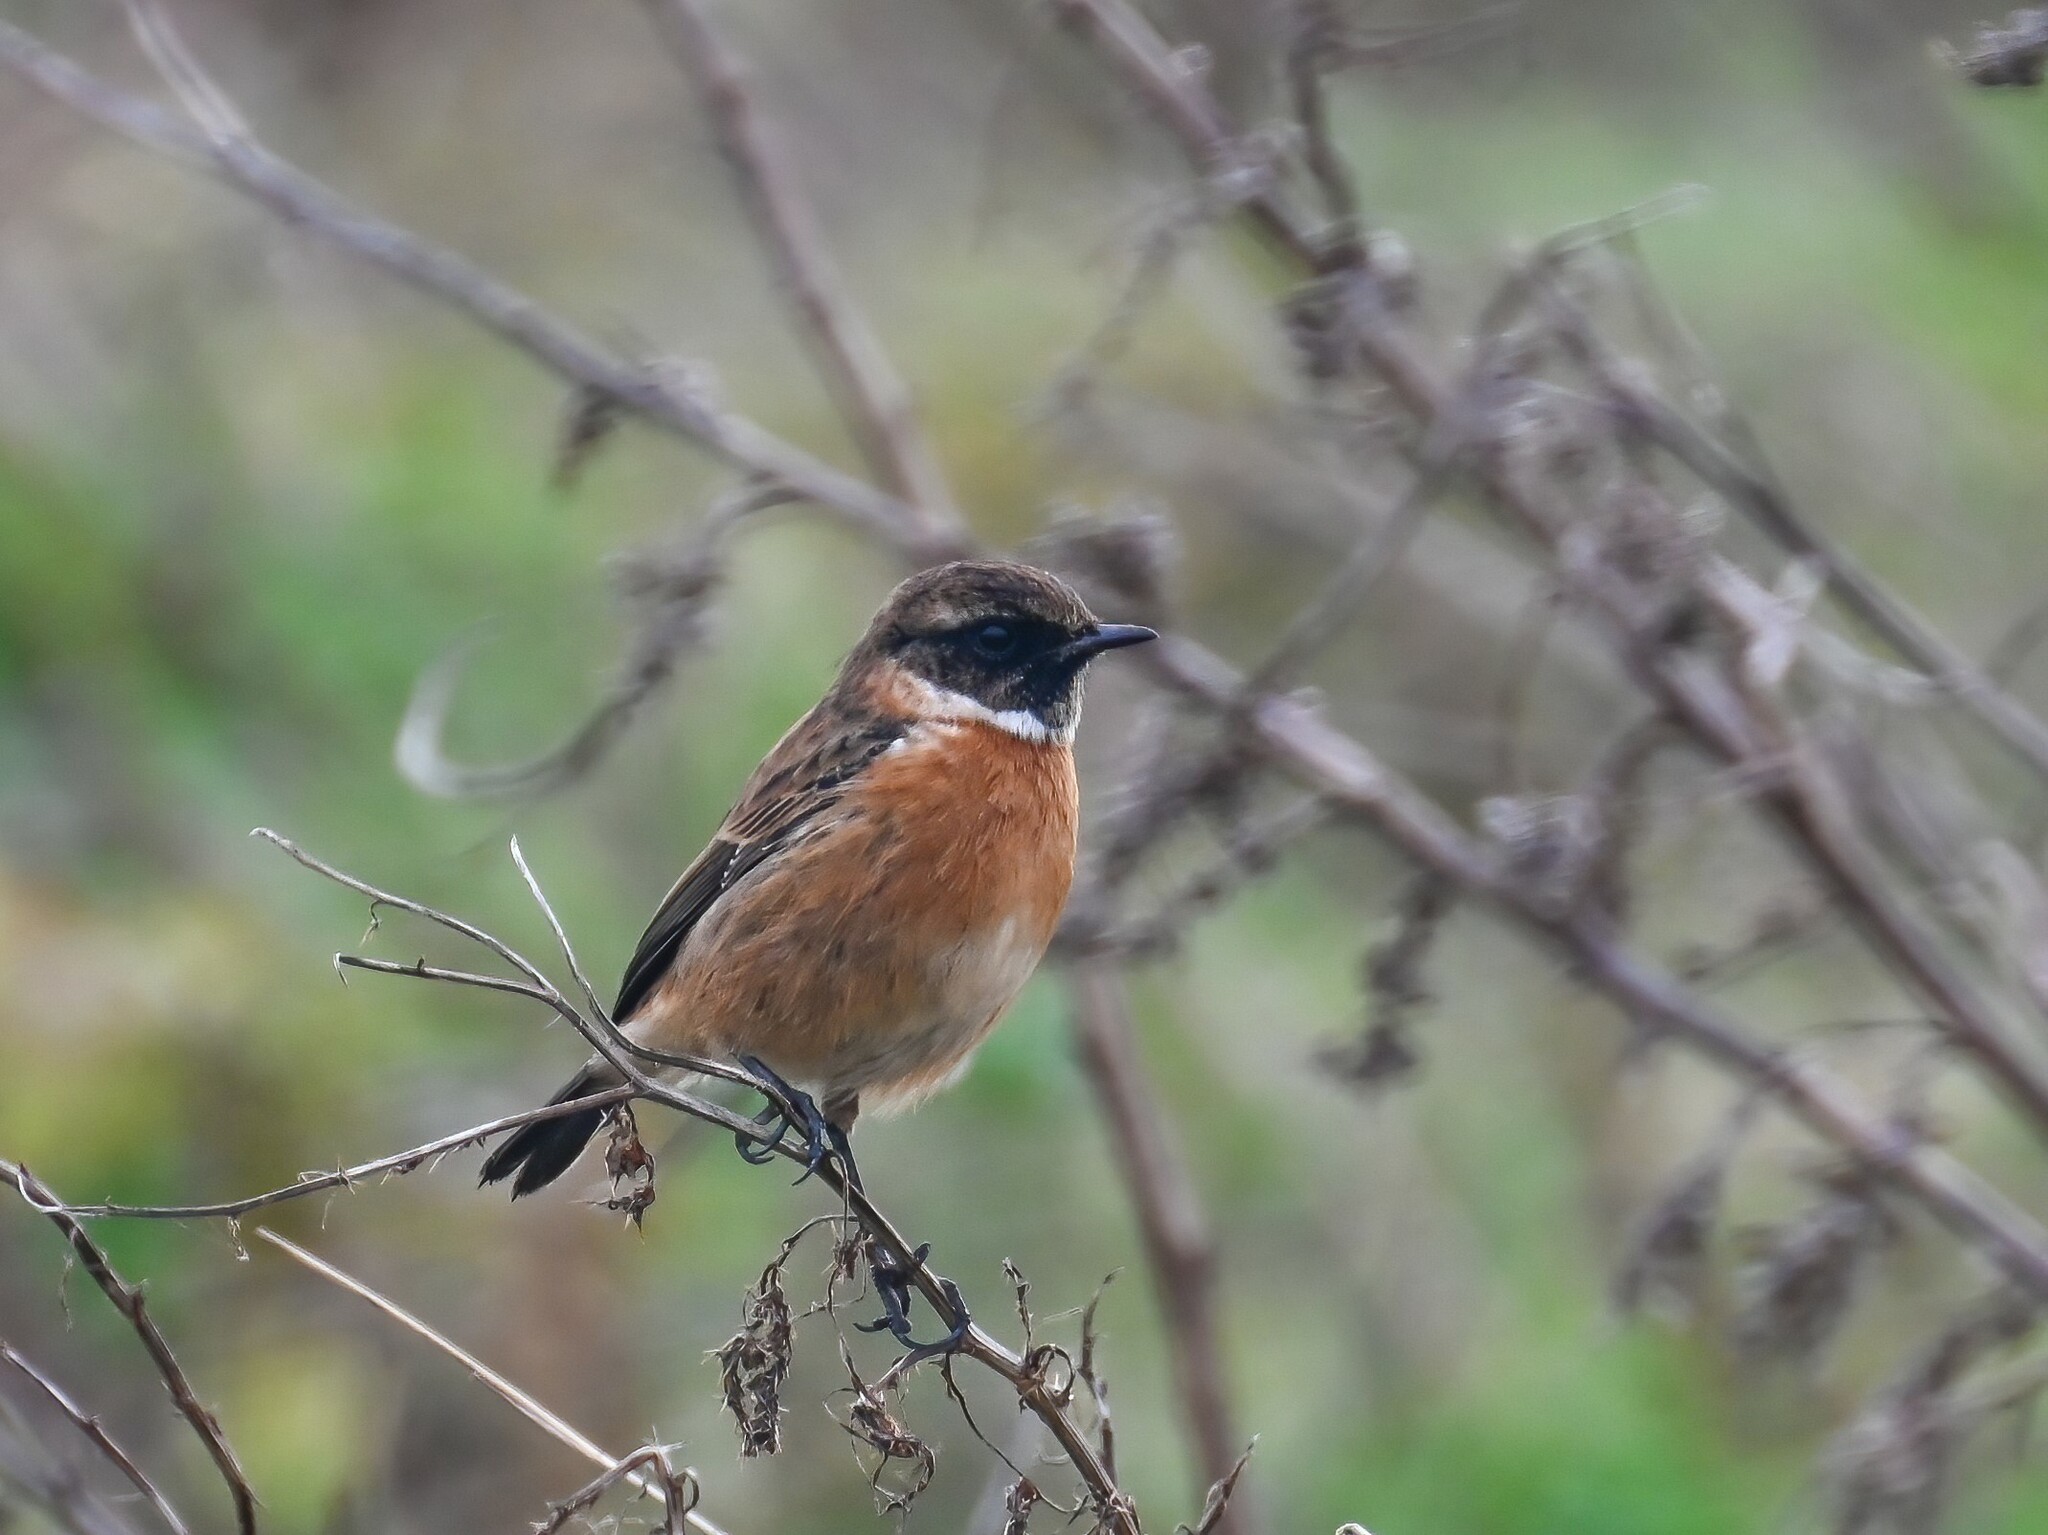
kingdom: Animalia
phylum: Chordata
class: Aves
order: Passeriformes
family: Muscicapidae
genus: Saxicola
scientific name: Saxicola rubicola
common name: European stonechat
